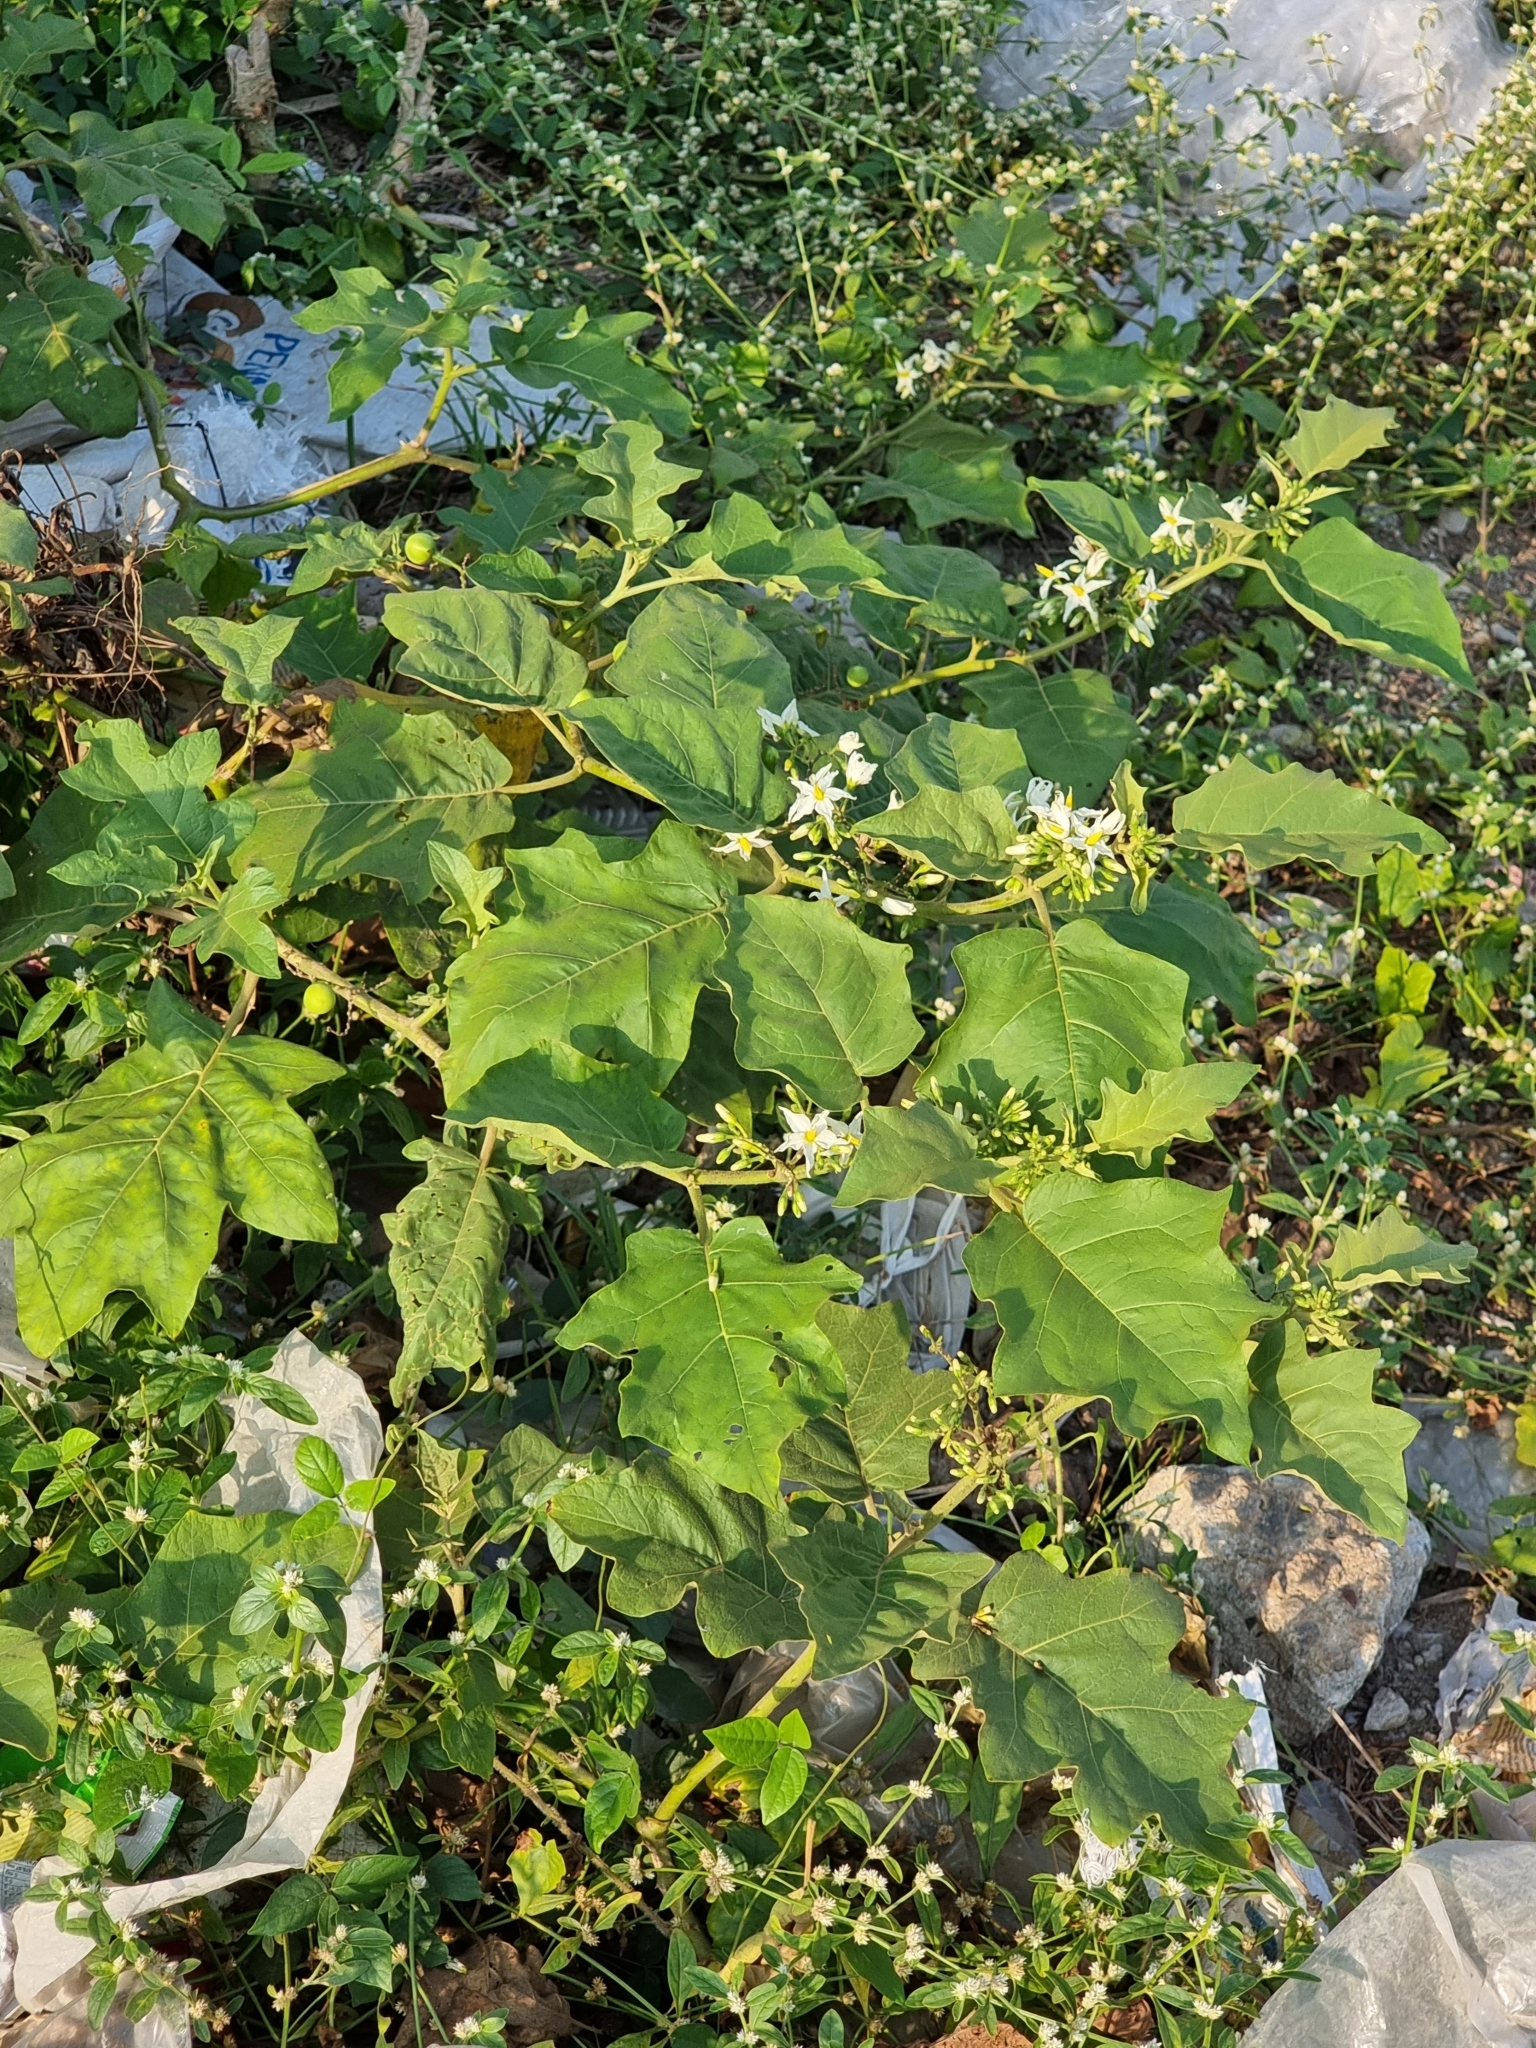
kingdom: Plantae
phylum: Tracheophyta
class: Magnoliopsida
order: Solanales
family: Solanaceae
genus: Solanum
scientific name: Solanum torvum
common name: Turkey berry
